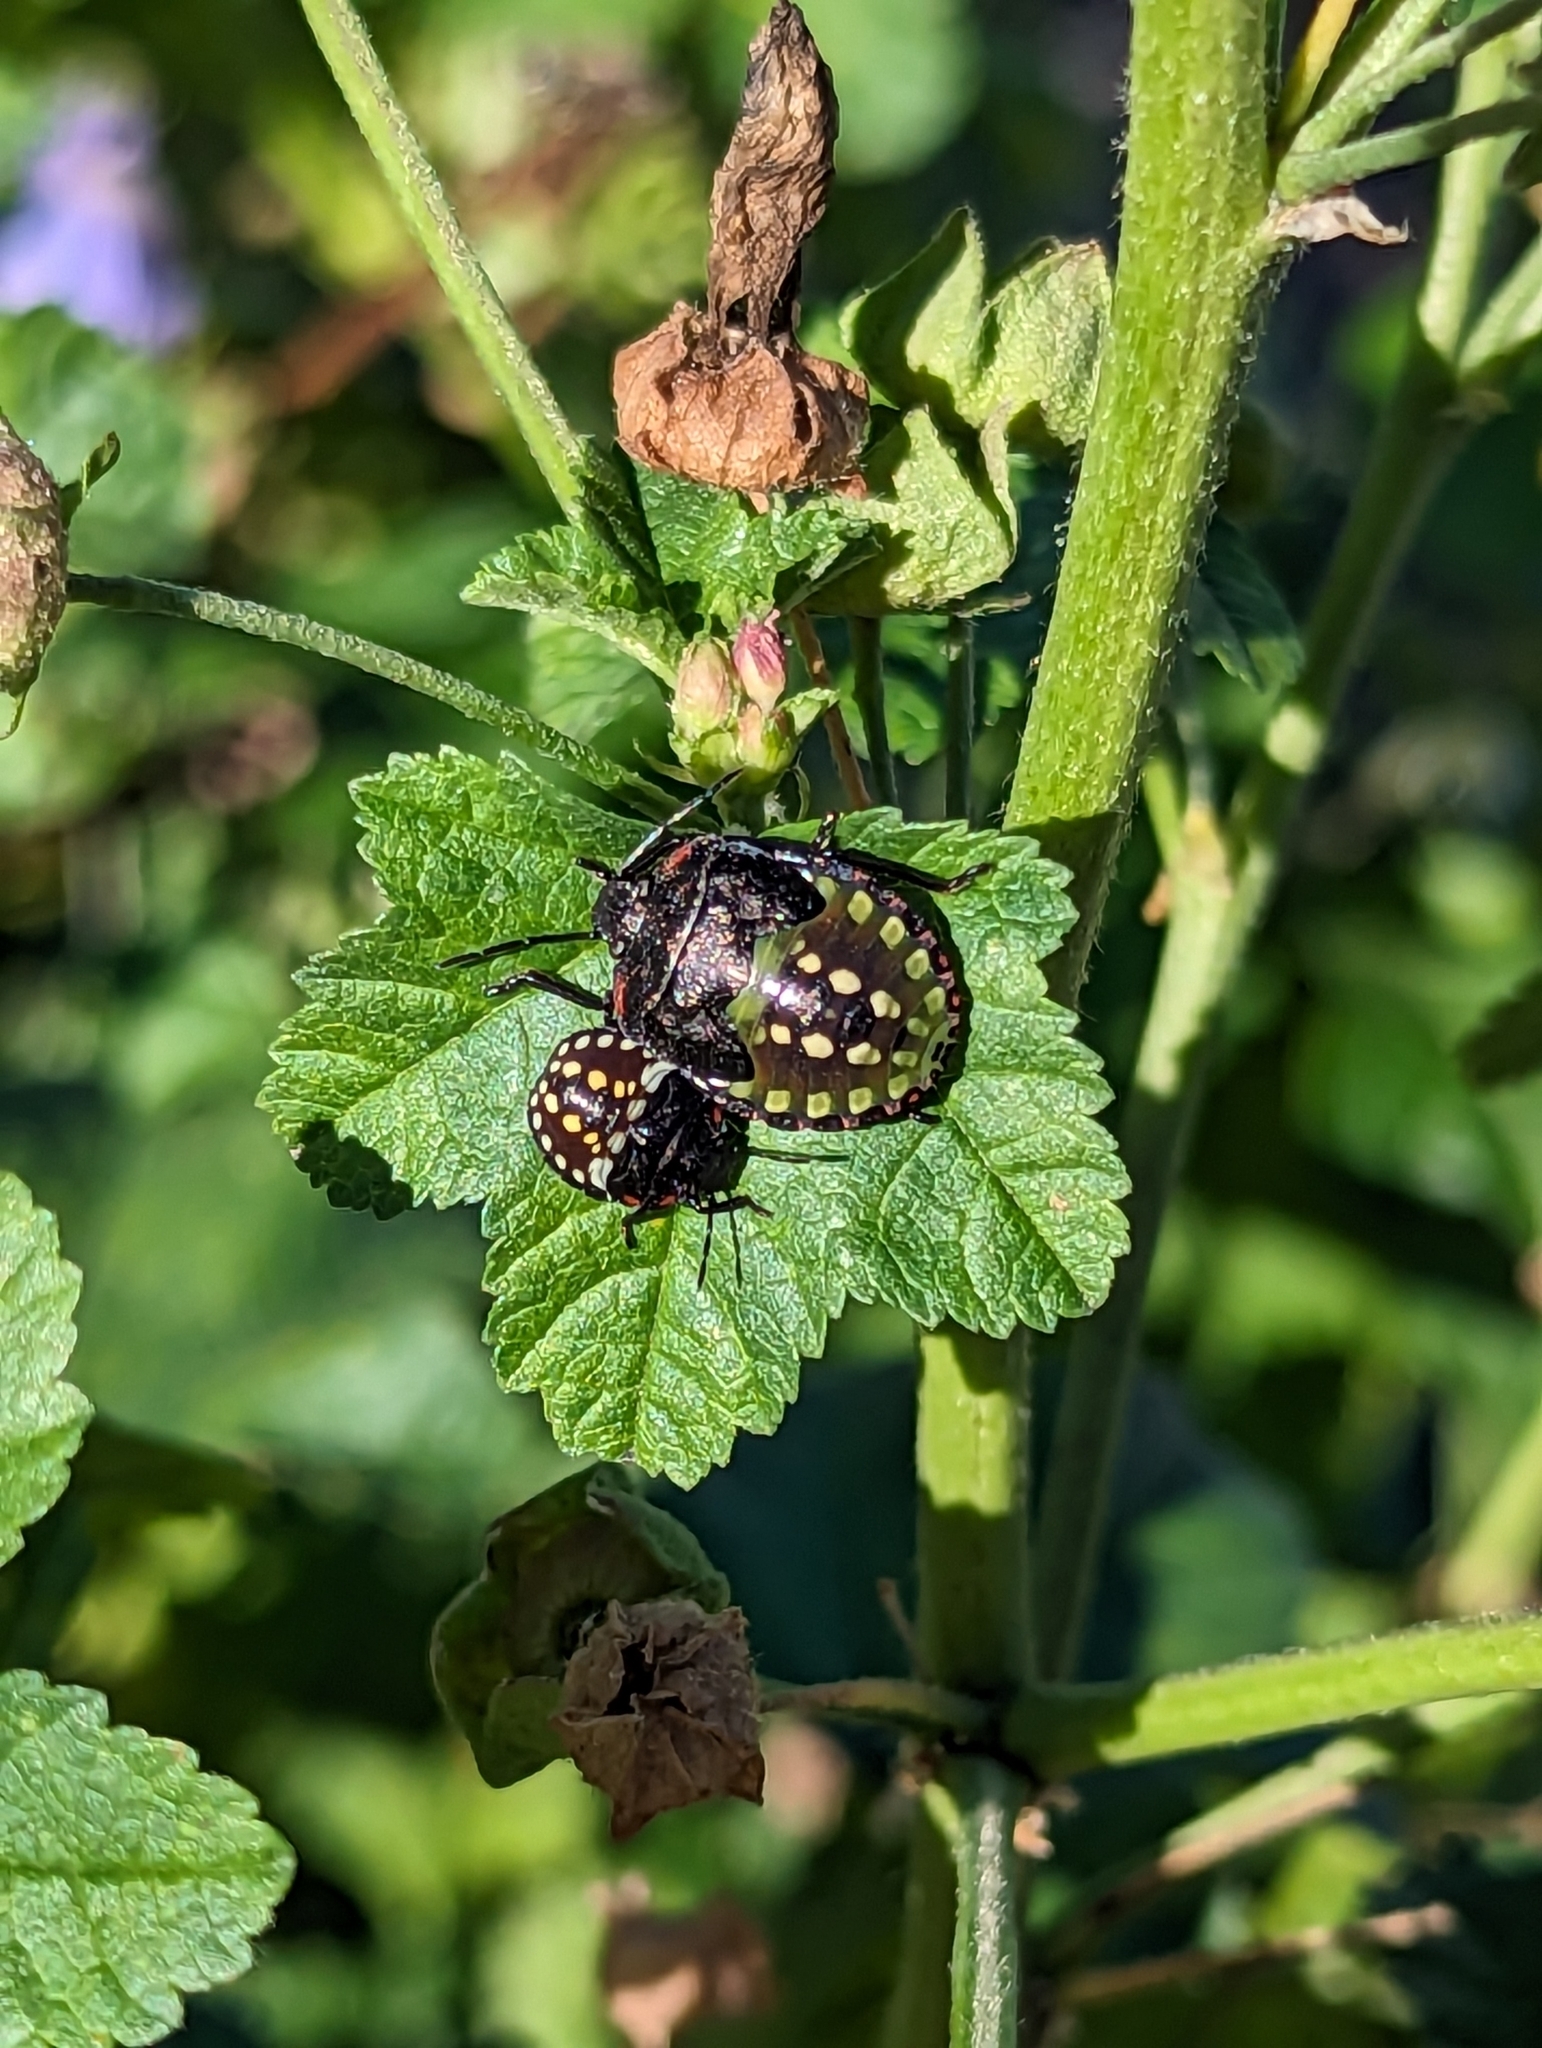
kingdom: Animalia
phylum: Arthropoda
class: Insecta
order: Hemiptera
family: Pentatomidae
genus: Nezara
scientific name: Nezara viridula
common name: Southern green stink bug
